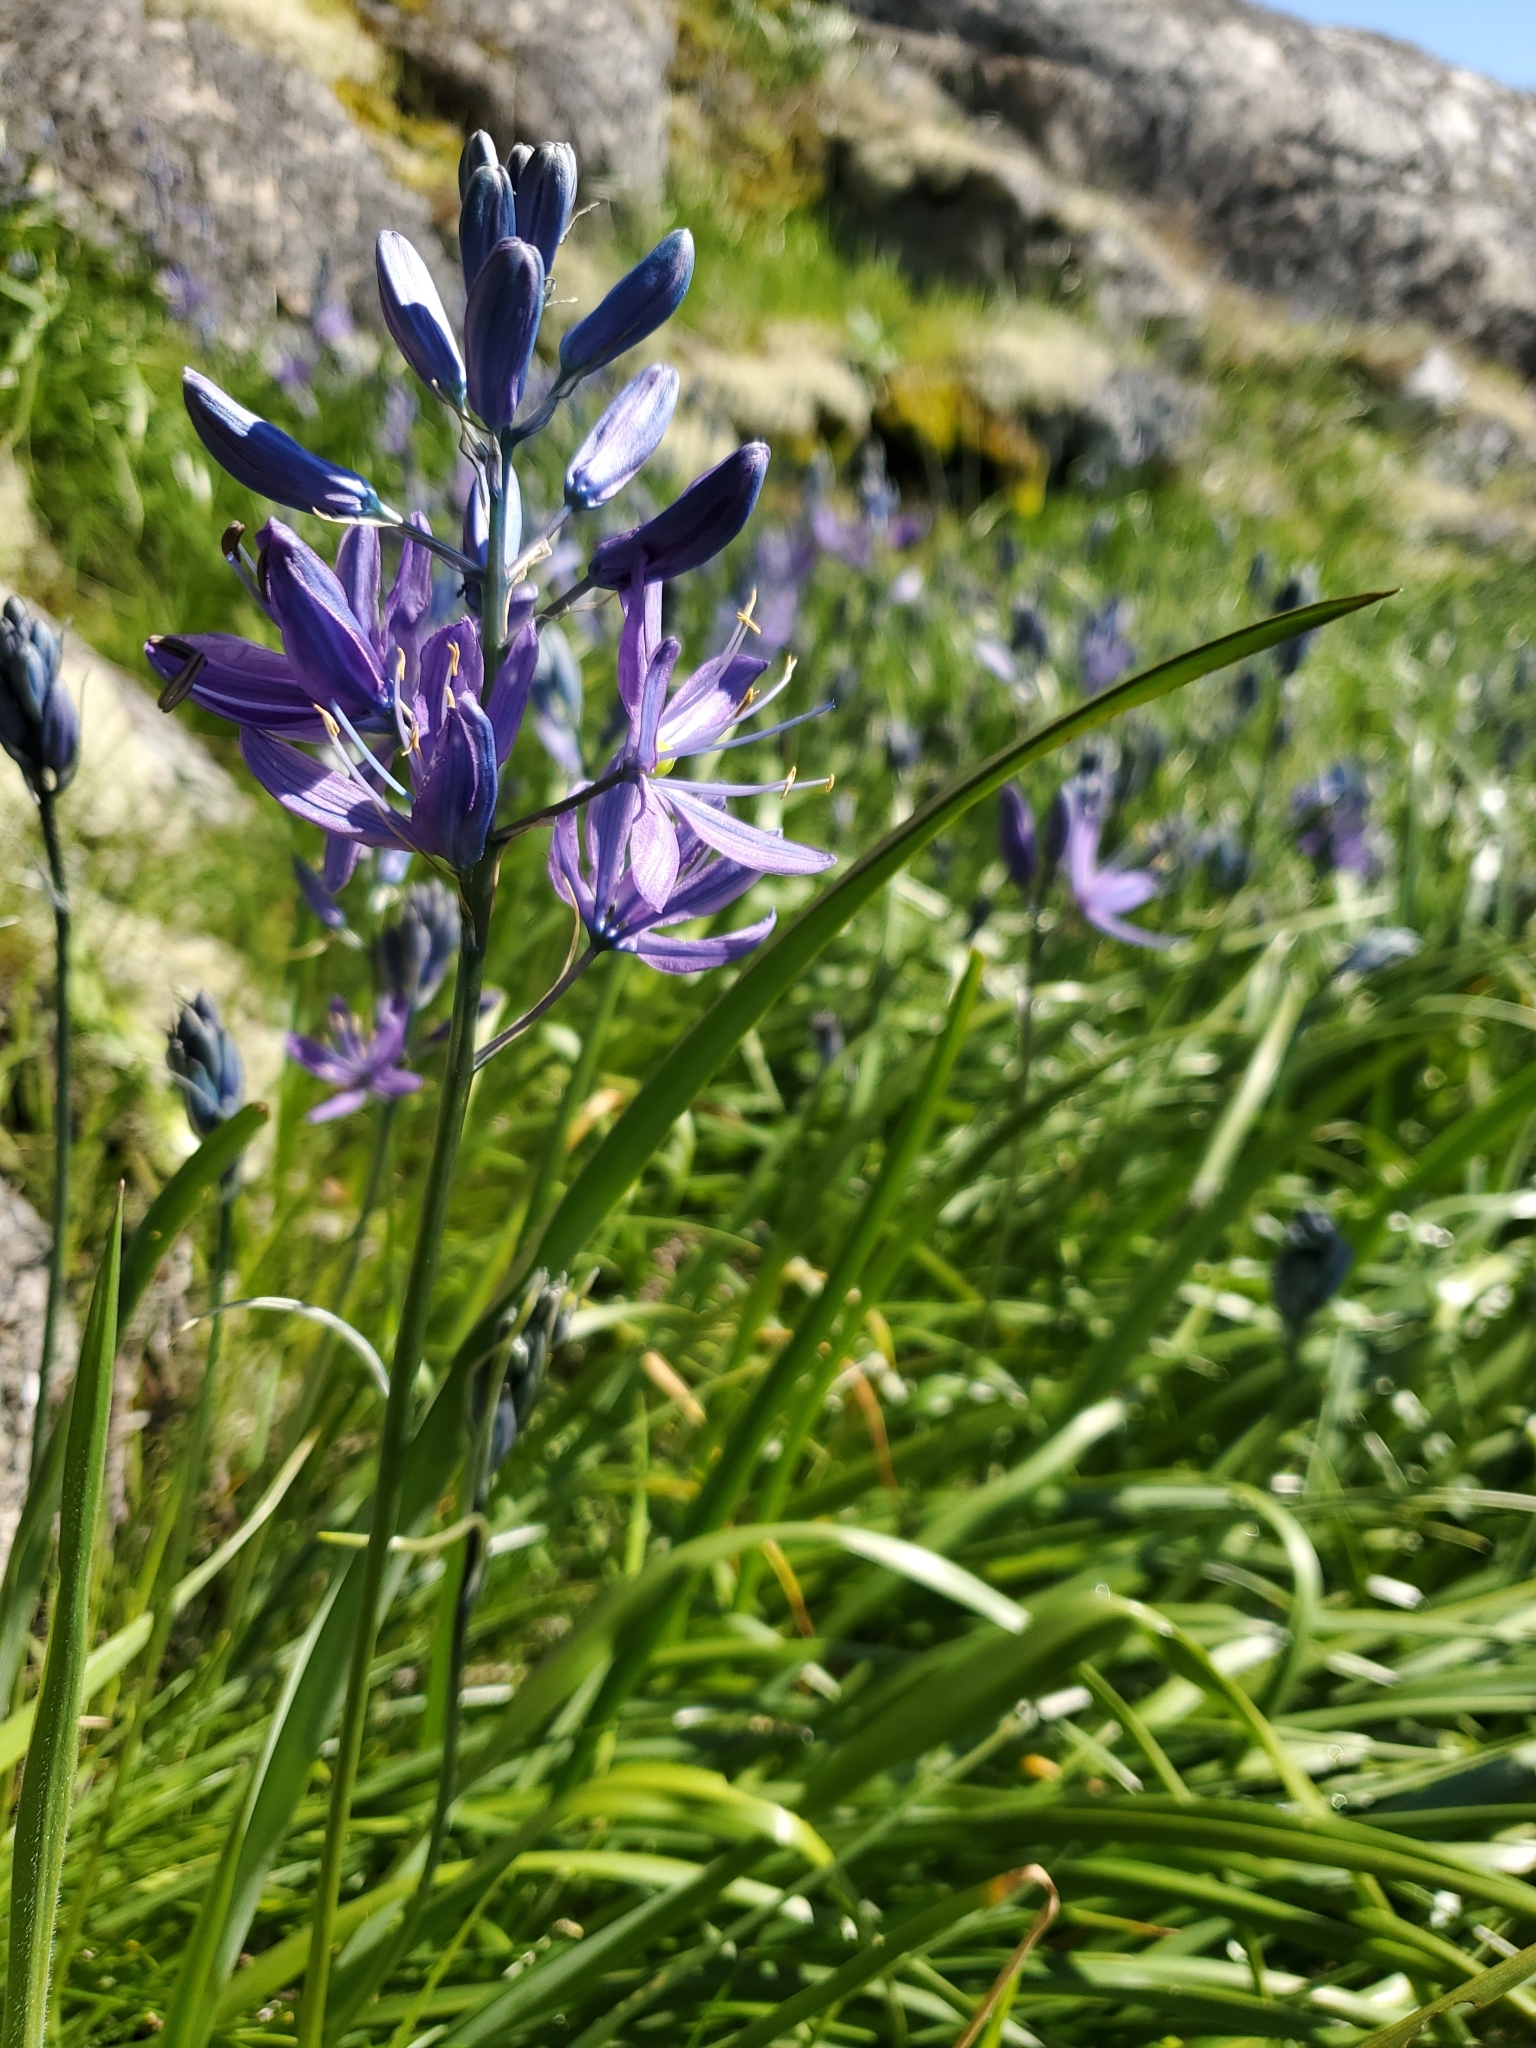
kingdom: Plantae
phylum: Tracheophyta
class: Liliopsida
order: Asparagales
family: Asparagaceae
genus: Camassia
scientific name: Camassia quamash
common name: Common camas
